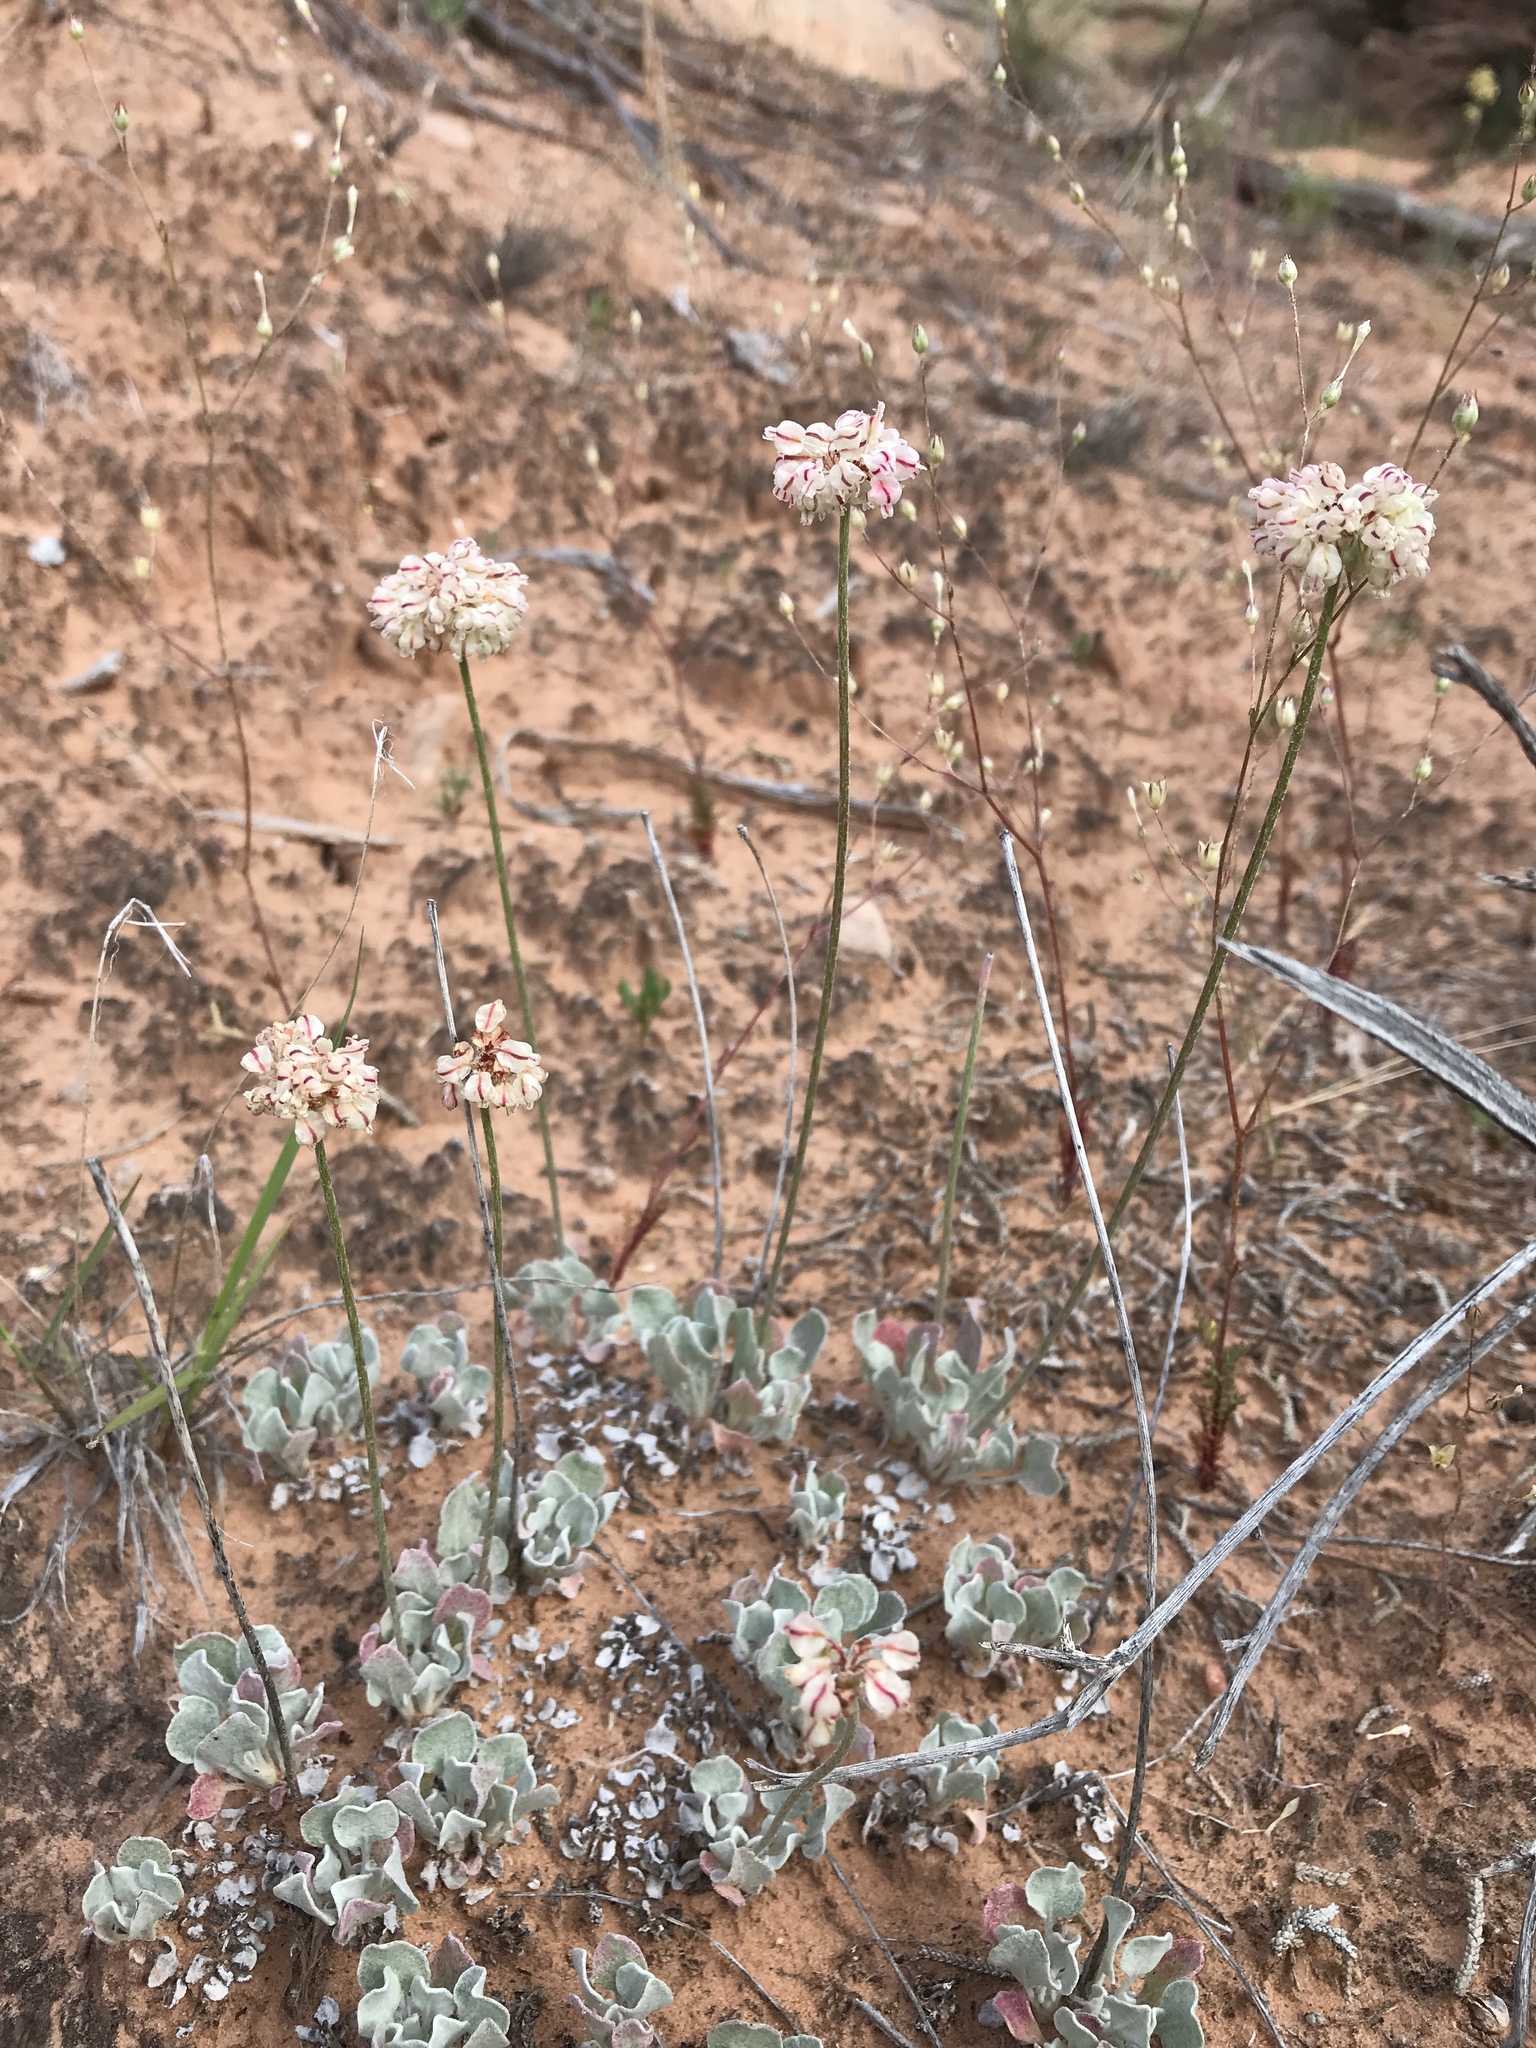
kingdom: Plantae
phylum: Tracheophyta
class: Magnoliopsida
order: Caryophyllales
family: Polygonaceae
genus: Eriogonum
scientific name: Eriogonum ovalifolium
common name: Cushion buckwheat
